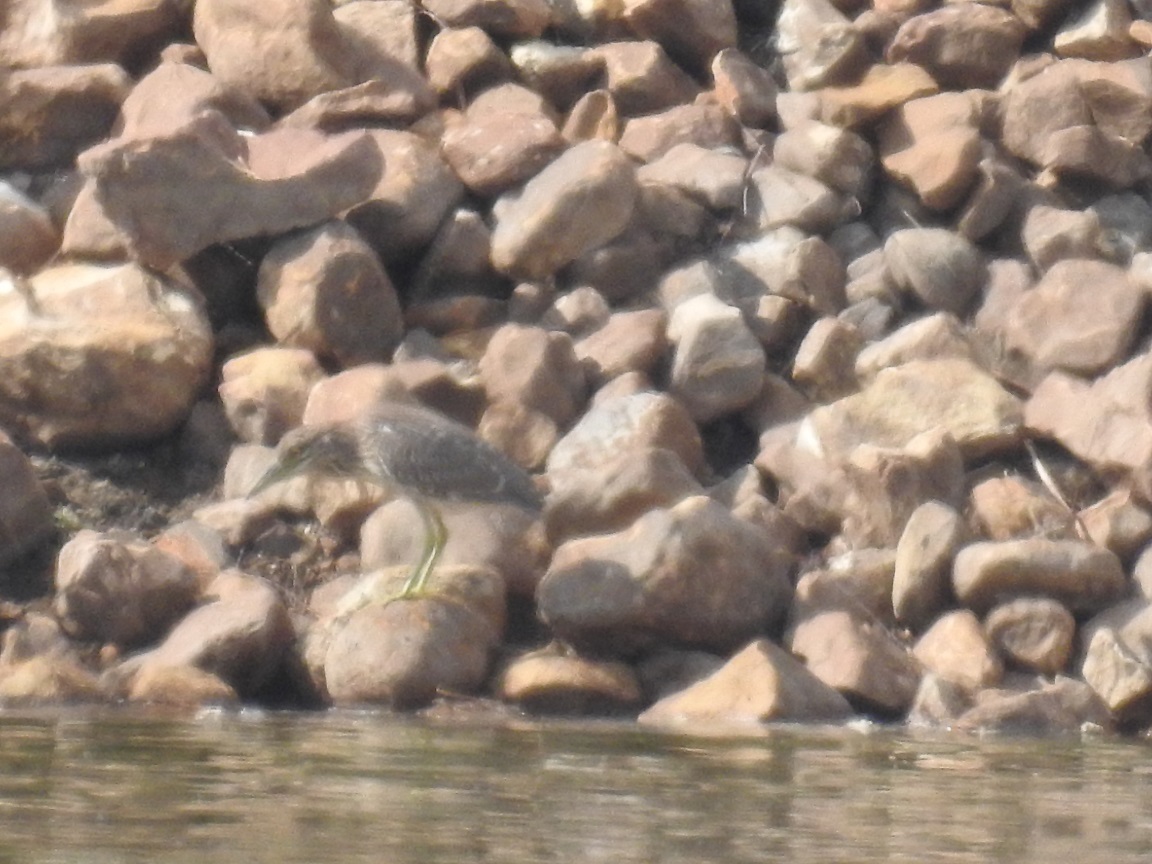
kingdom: Animalia
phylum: Chordata
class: Aves
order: Pelecaniformes
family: Ardeidae
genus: Nycticorax
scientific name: Nycticorax nycticorax
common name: Black-crowned night heron
